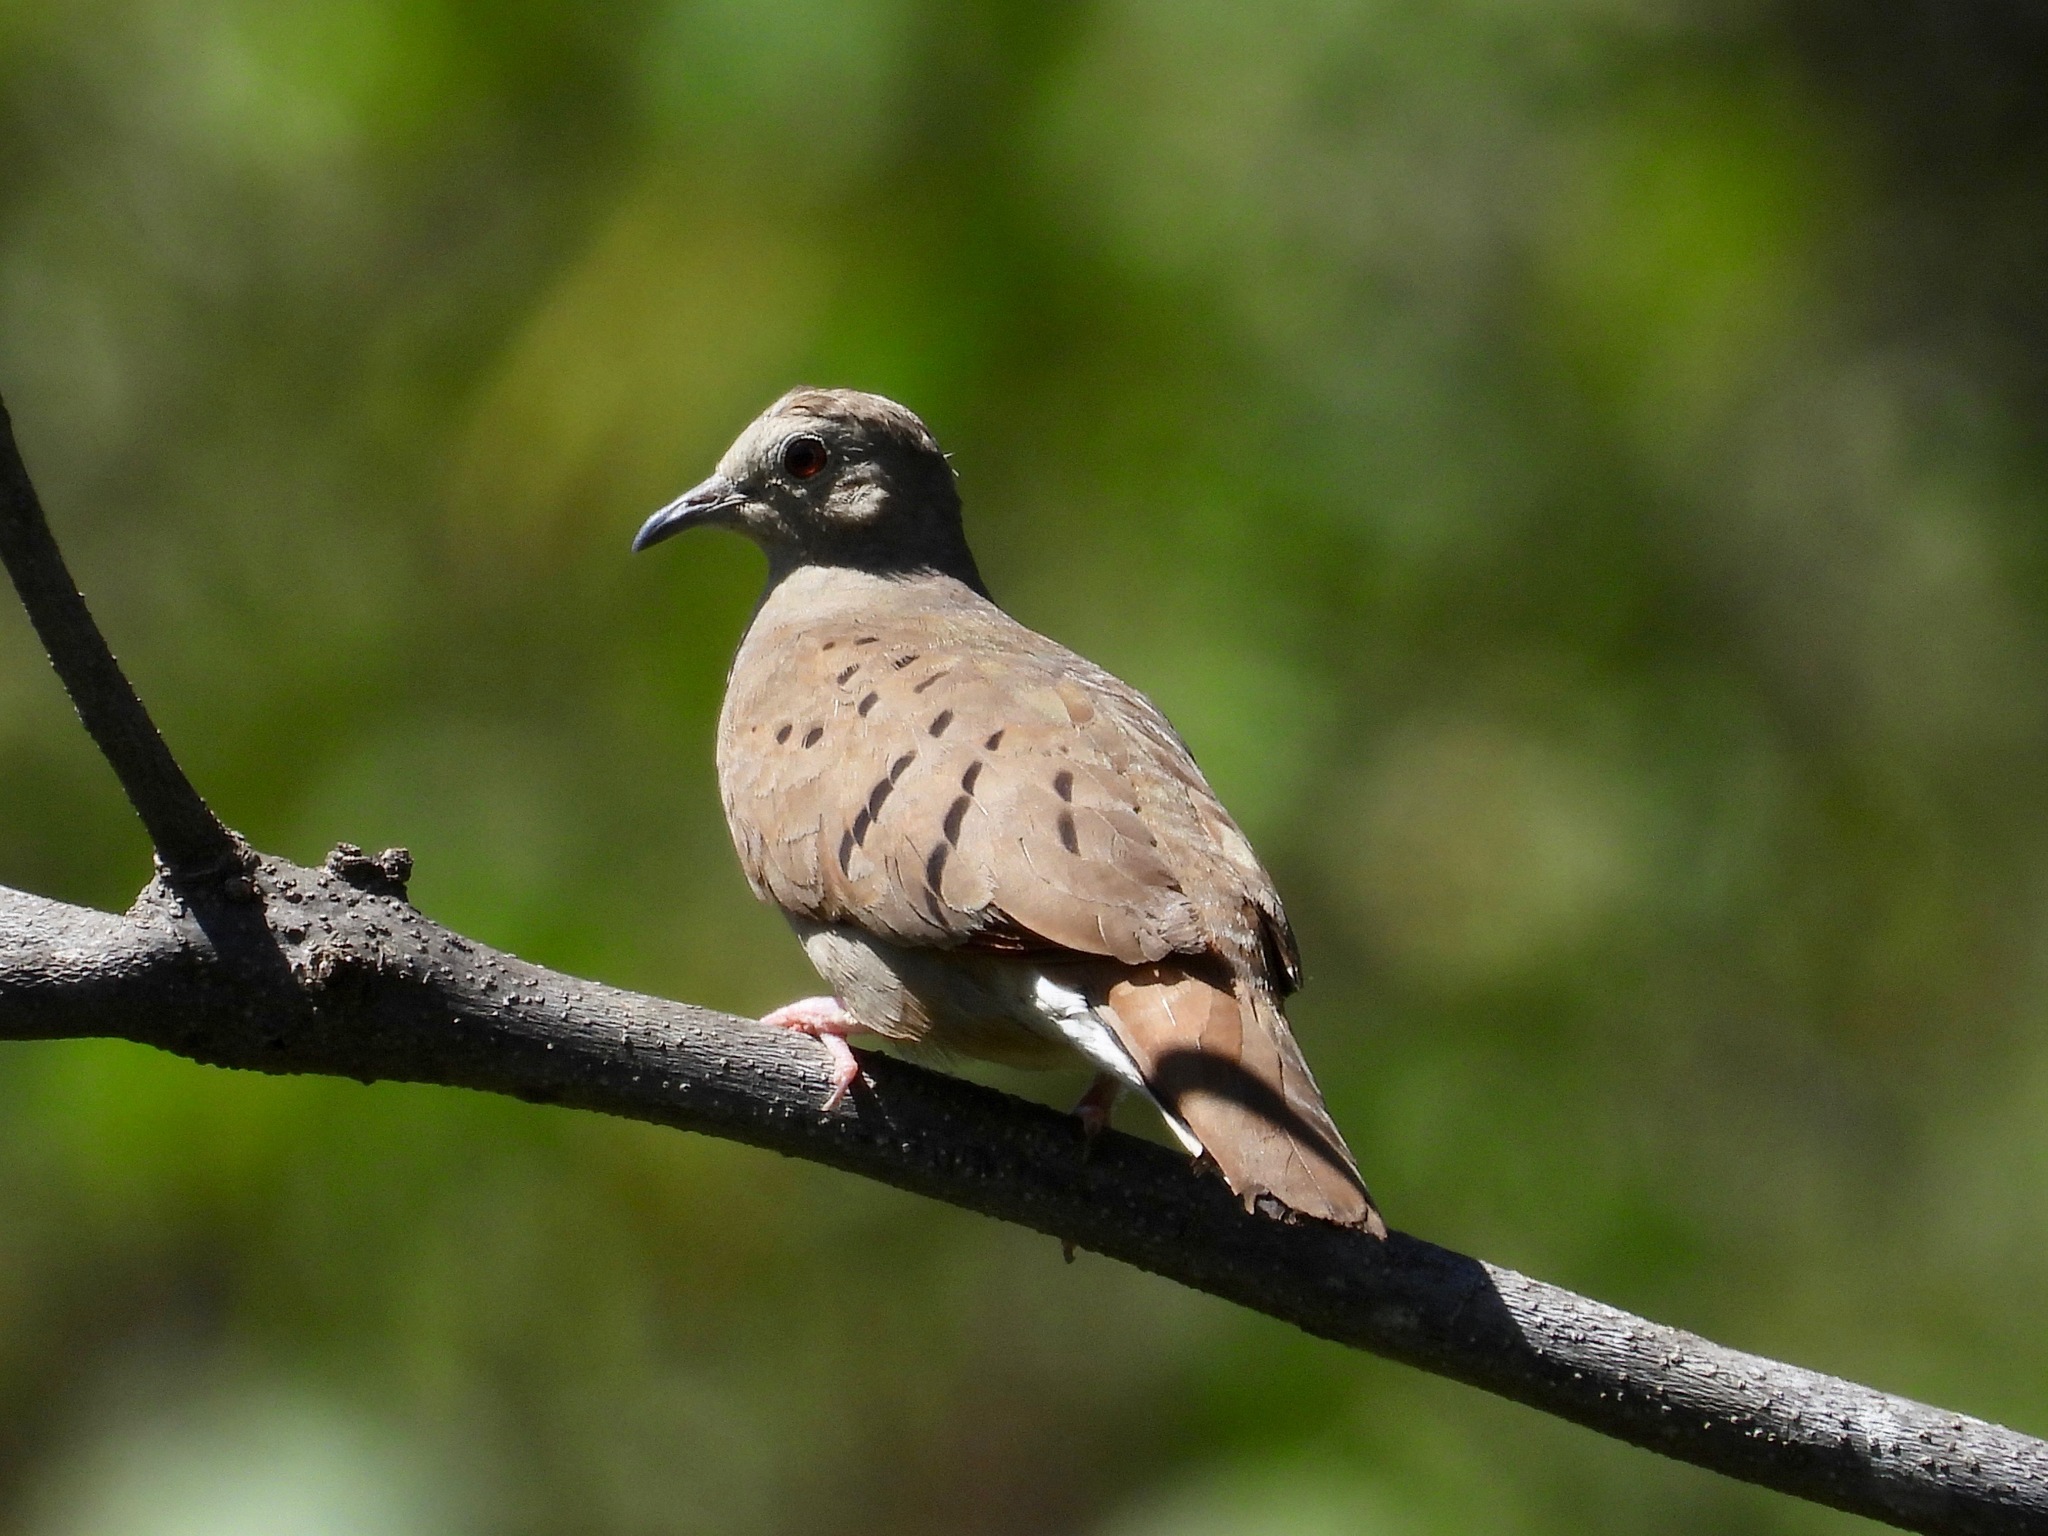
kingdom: Animalia
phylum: Chordata
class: Aves
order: Columbiformes
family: Columbidae
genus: Columbina
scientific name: Columbina talpacoti
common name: Ruddy ground dove
